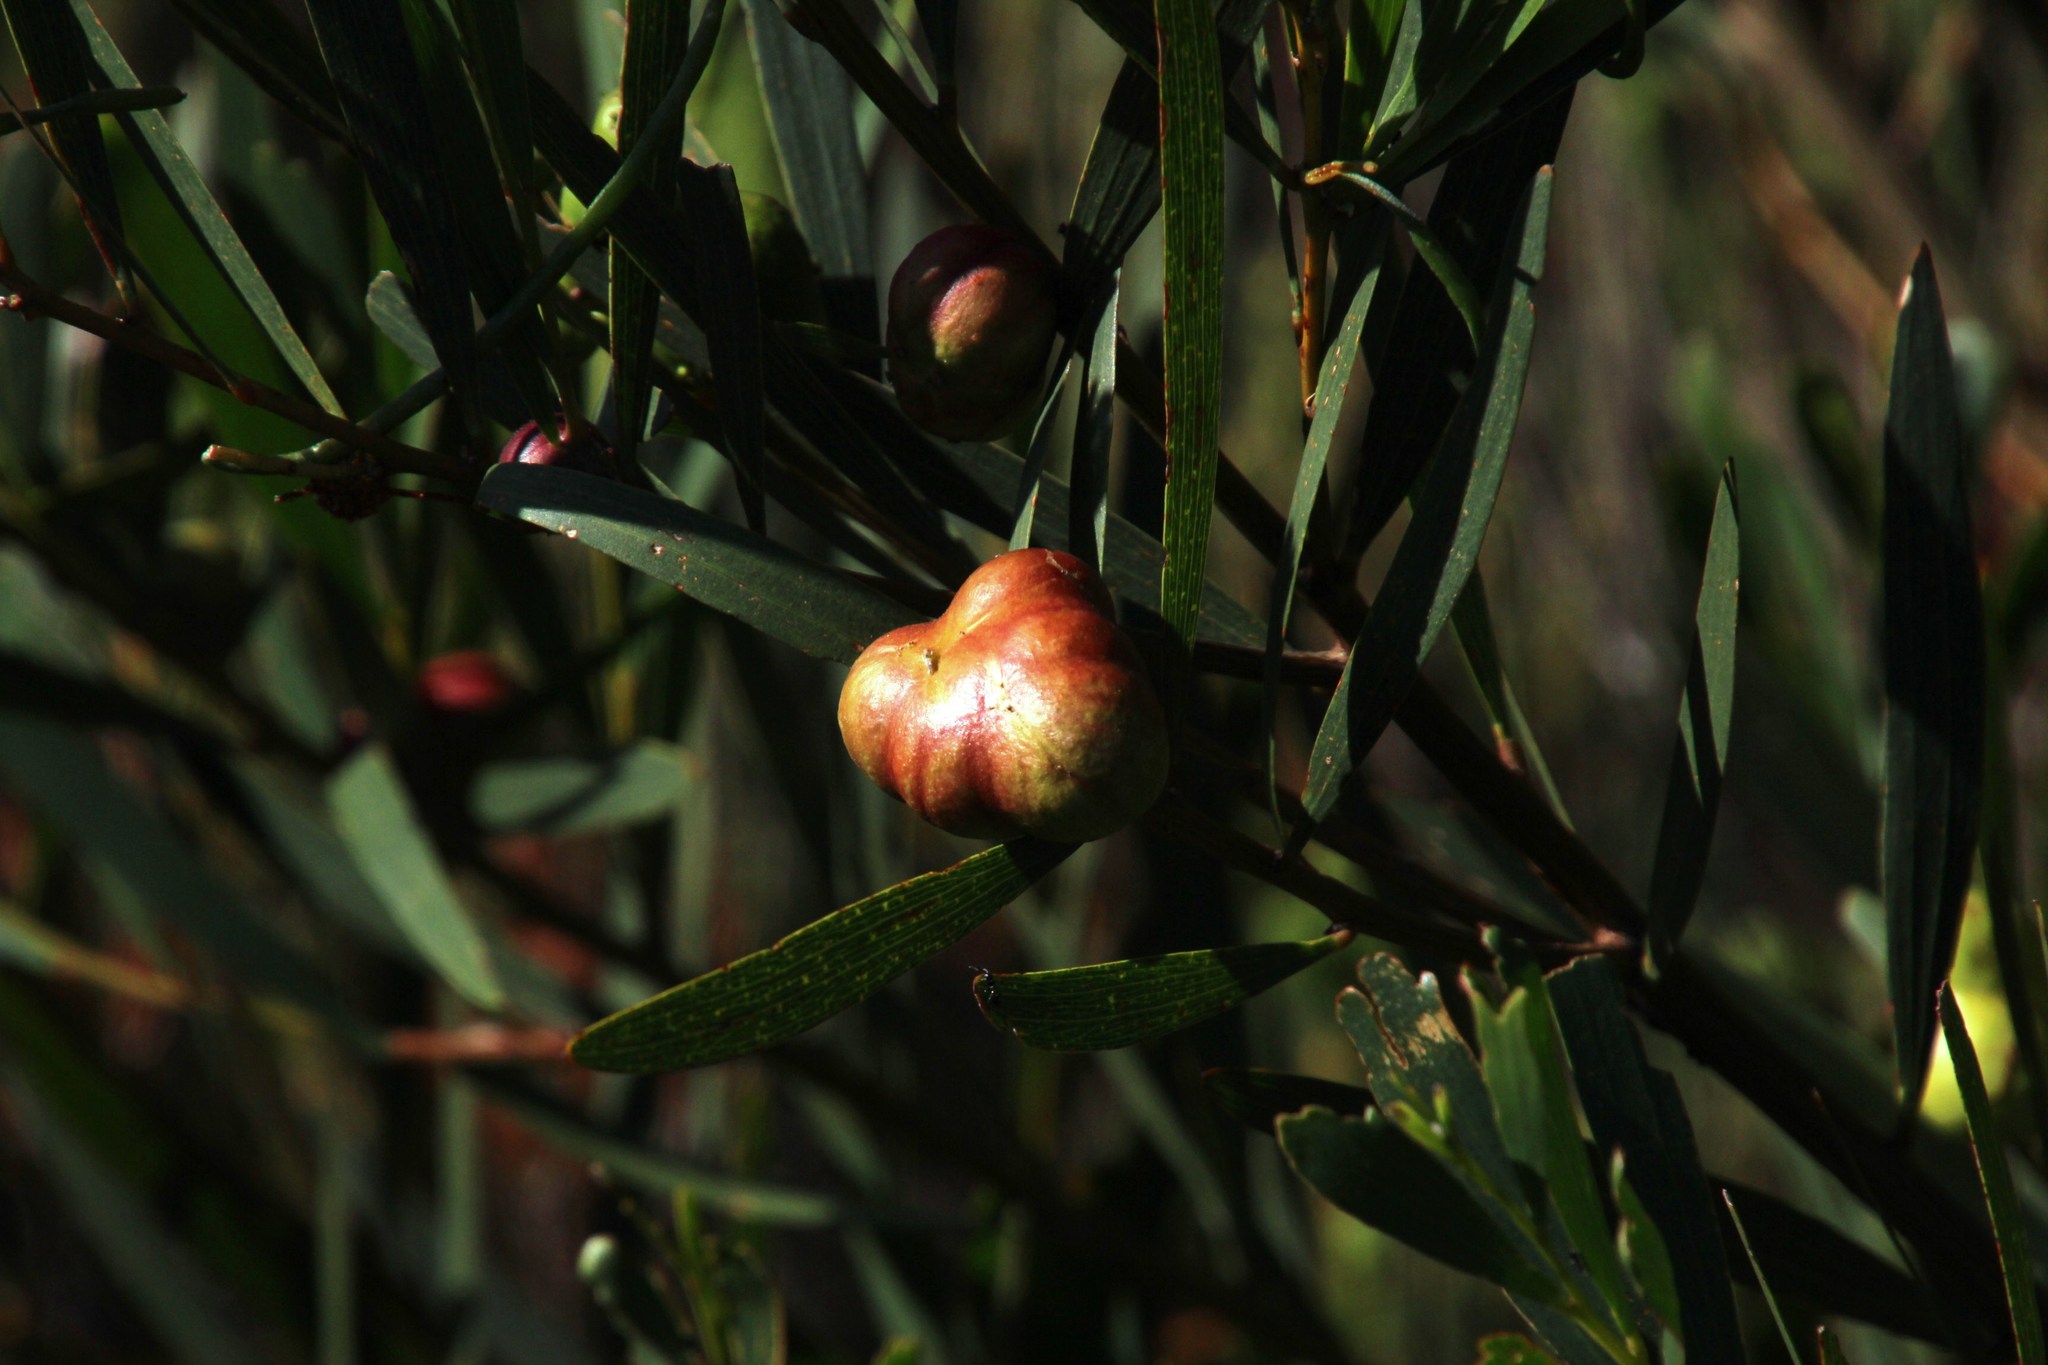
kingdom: Plantae
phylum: Tracheophyta
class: Magnoliopsida
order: Fabales
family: Fabaceae
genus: Acacia
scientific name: Acacia longifolia
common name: Sydney golden wattle
